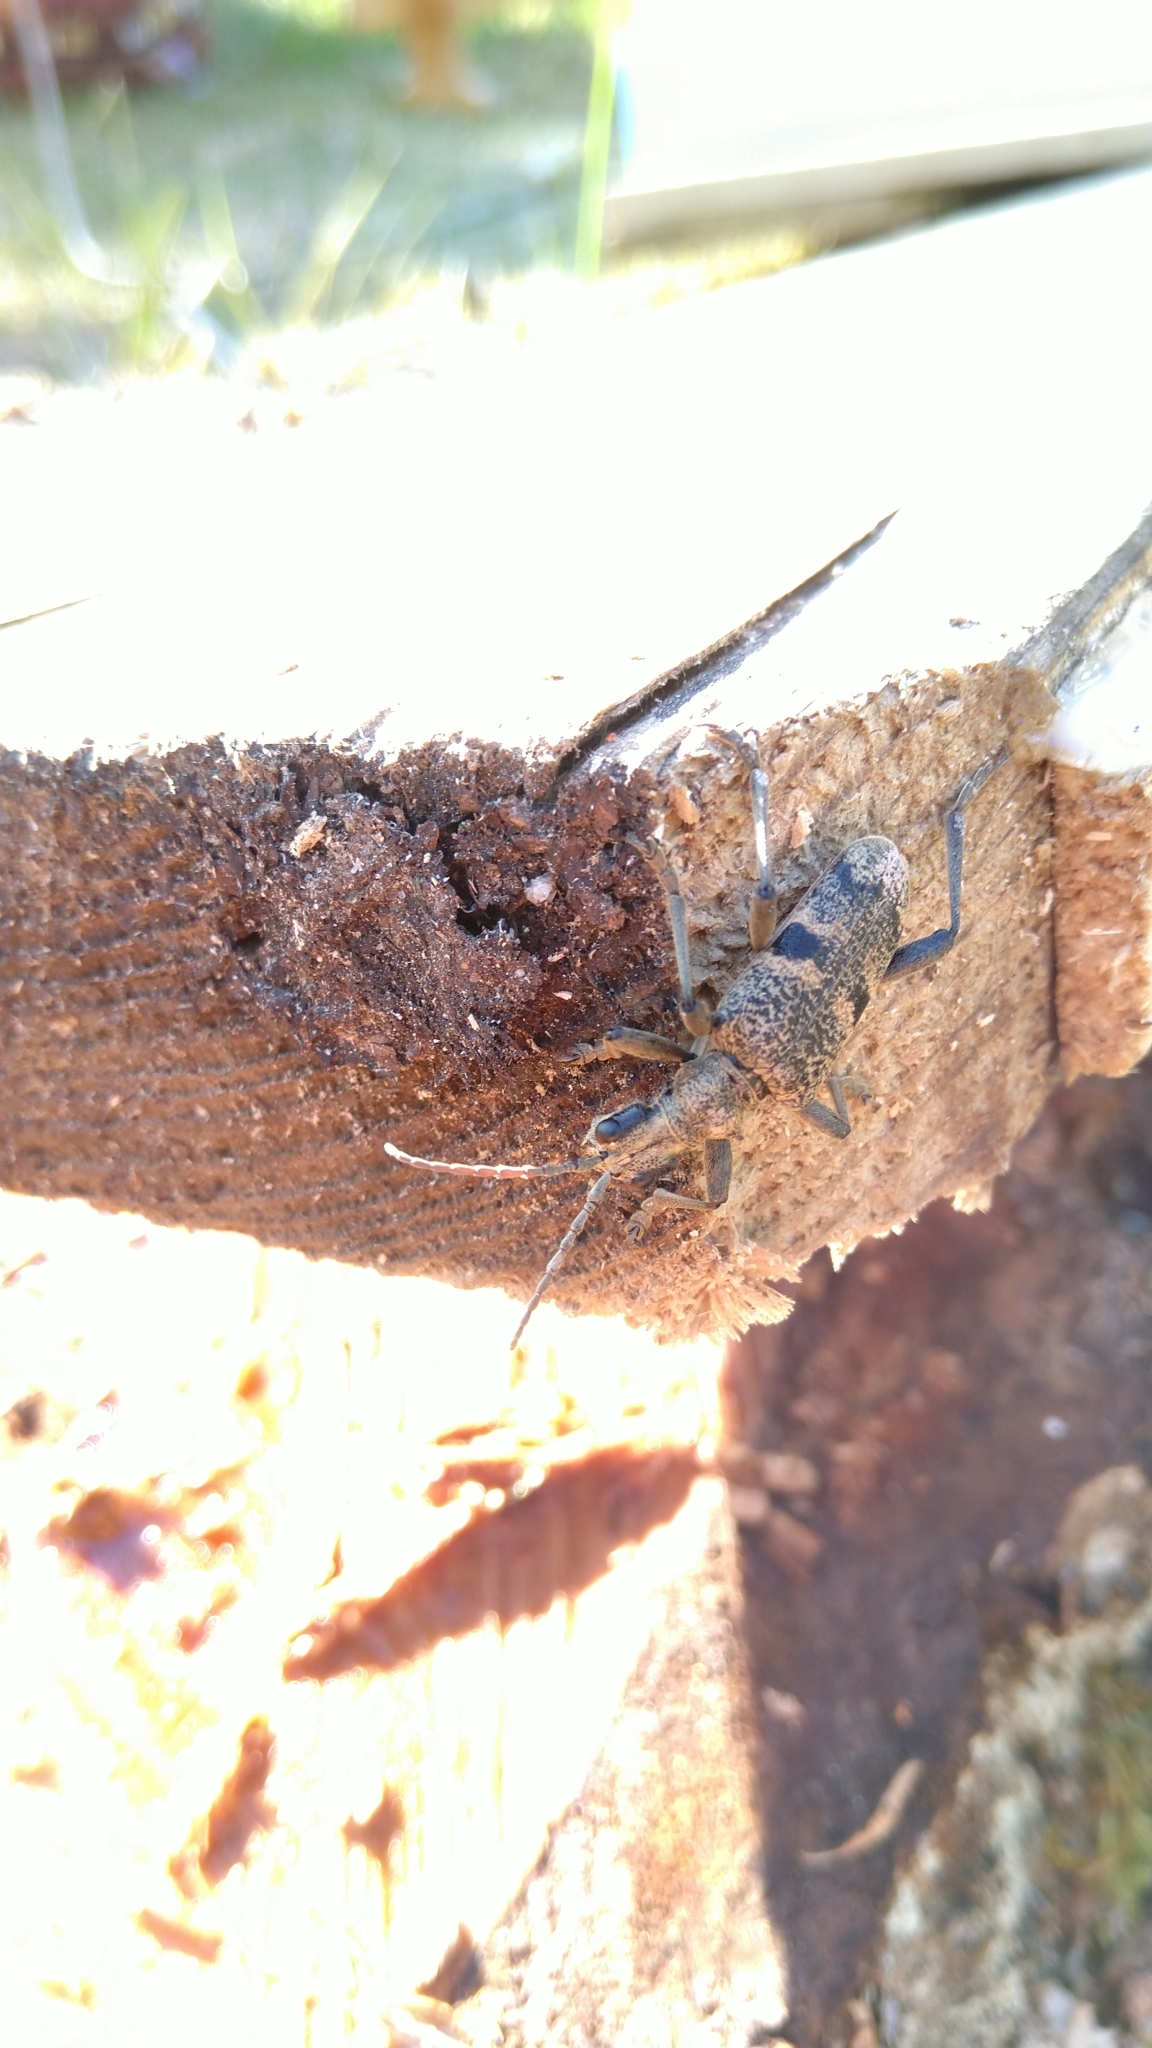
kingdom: Animalia
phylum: Arthropoda
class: Insecta
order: Coleoptera
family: Cerambycidae
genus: Rhagium
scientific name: Rhagium mordax
